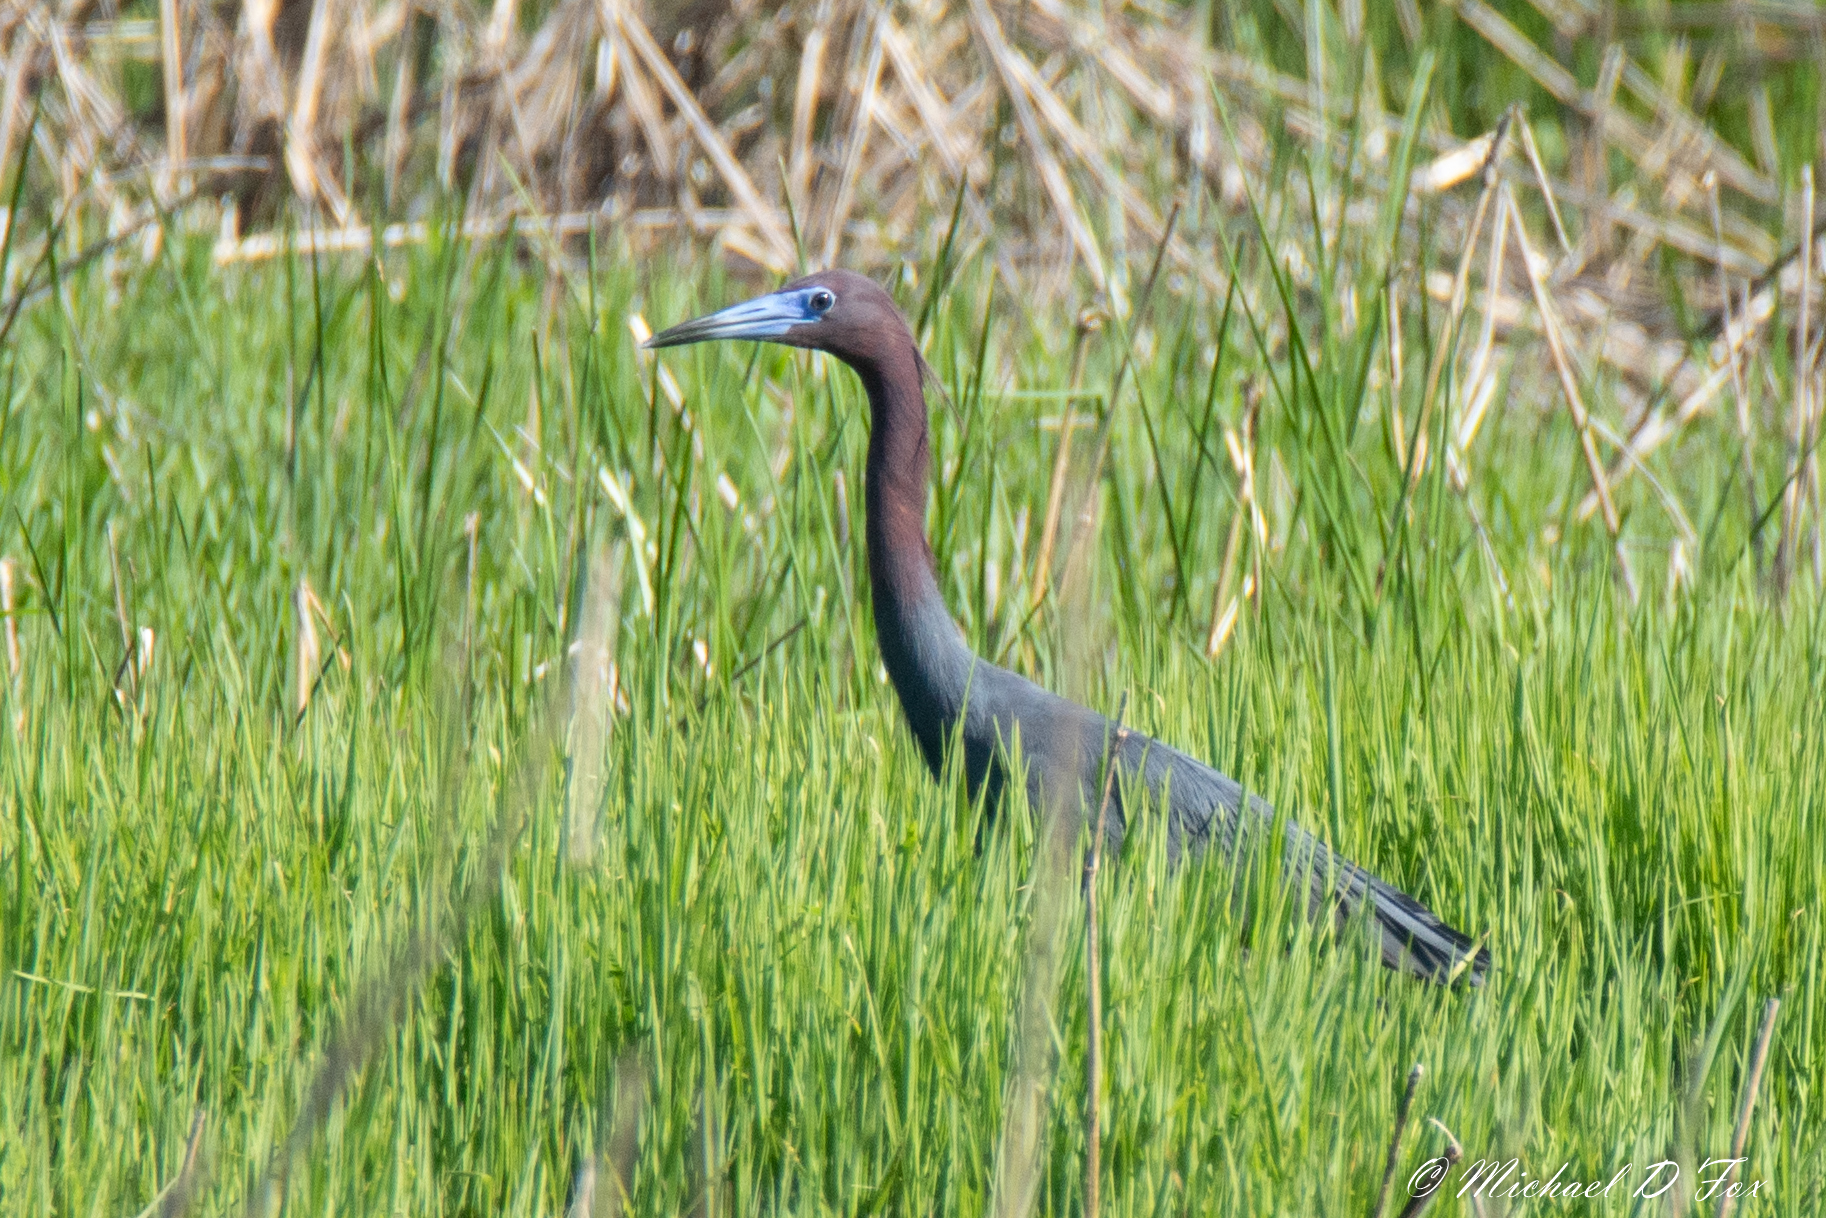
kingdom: Animalia
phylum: Chordata
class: Aves
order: Pelecaniformes
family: Ardeidae
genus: Egretta
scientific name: Egretta caerulea
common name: Little blue heron
